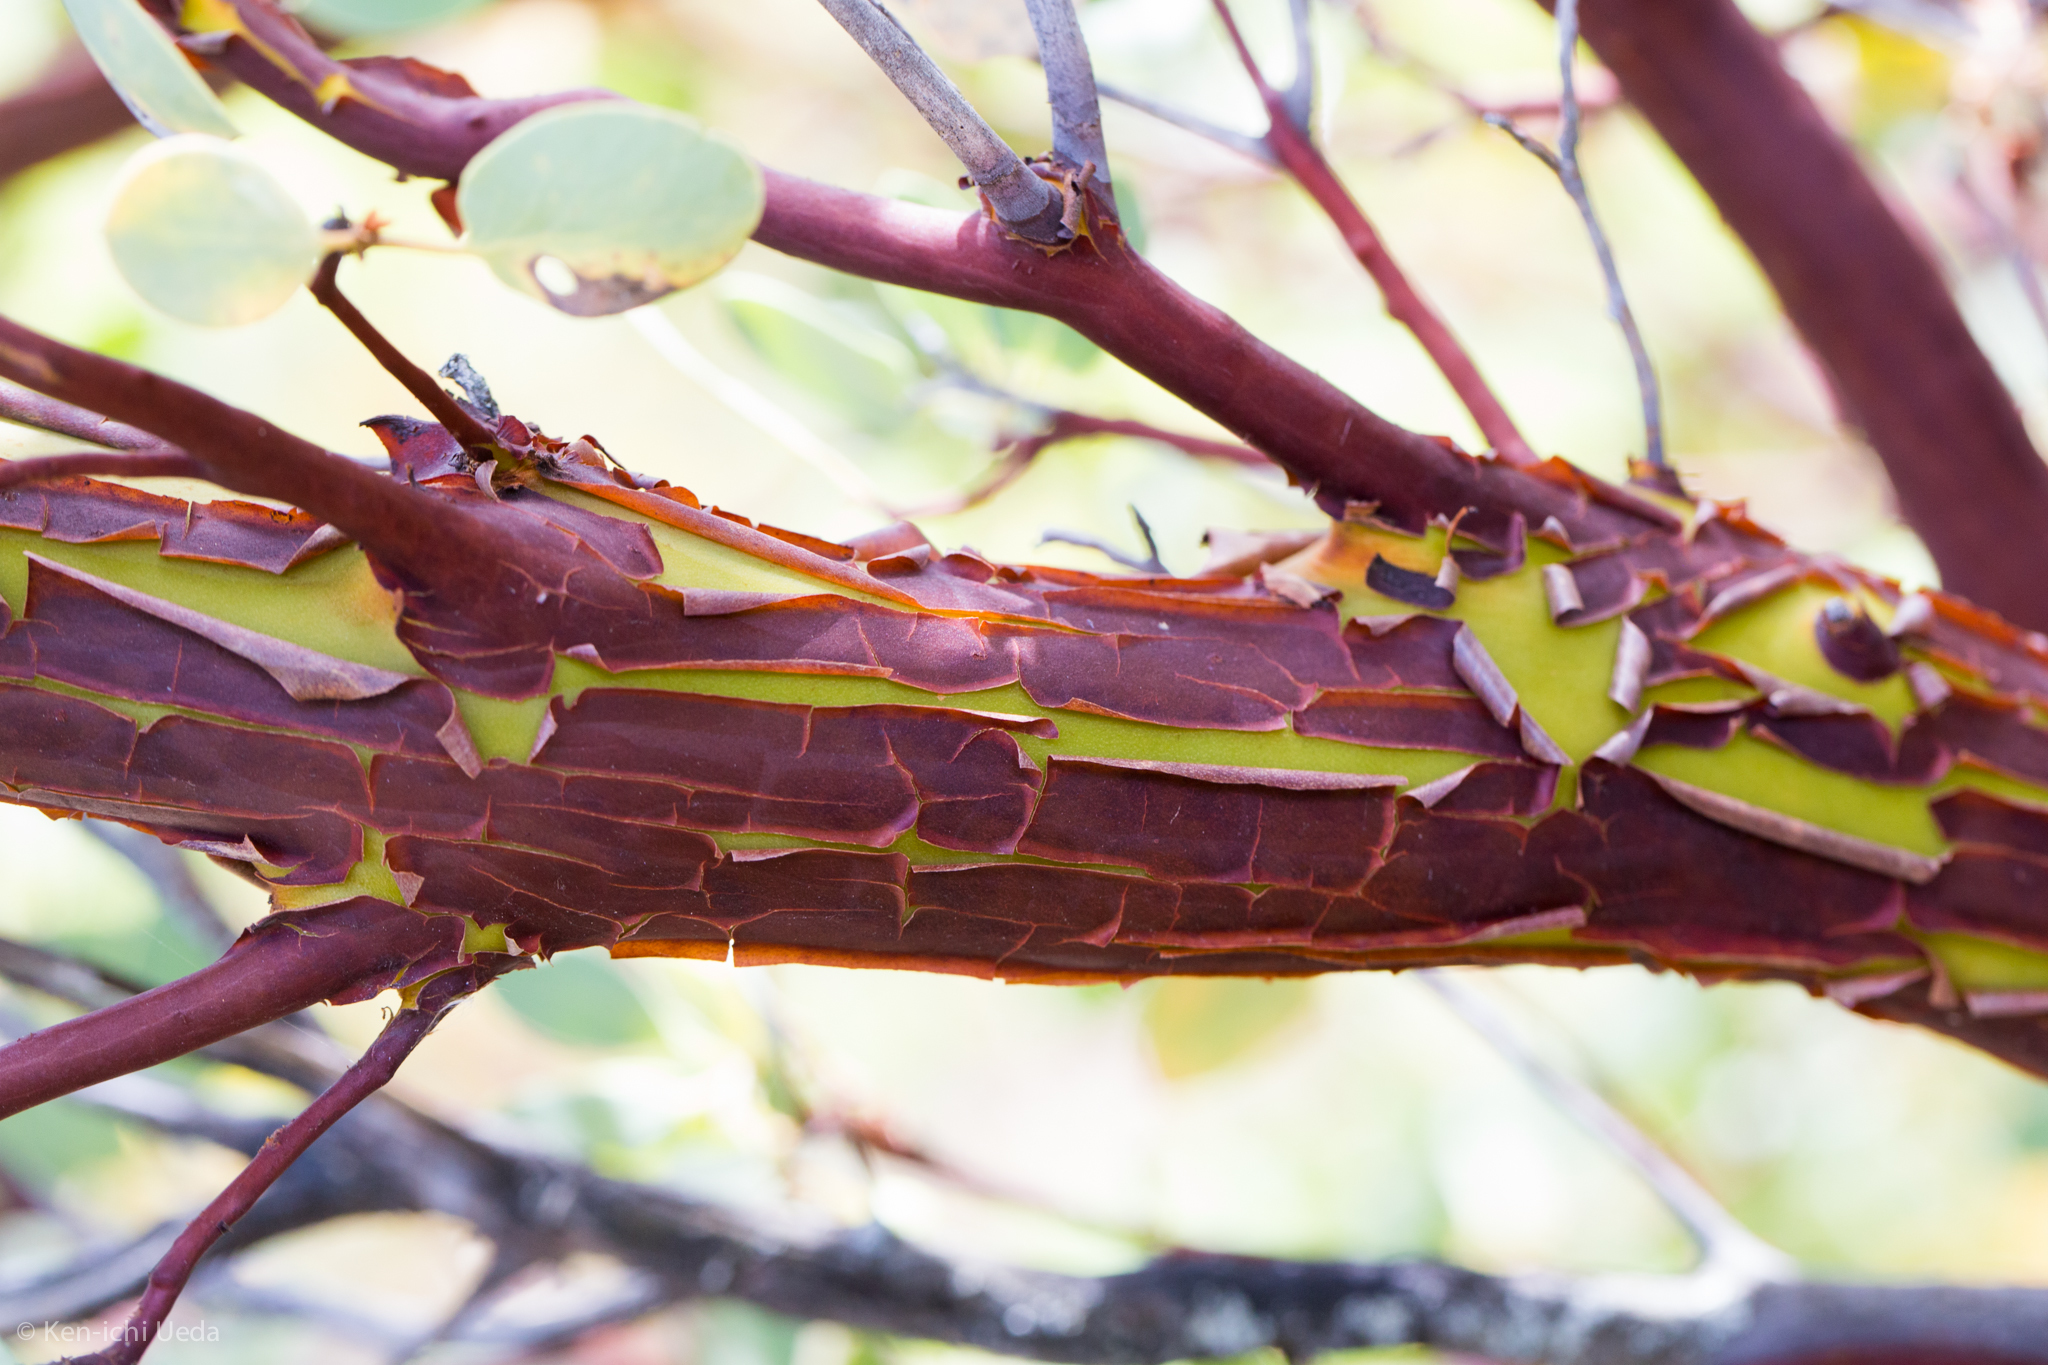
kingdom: Plantae
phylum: Tracheophyta
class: Magnoliopsida
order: Ericales
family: Ericaceae
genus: Arctostaphylos
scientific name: Arctostaphylos glauca
